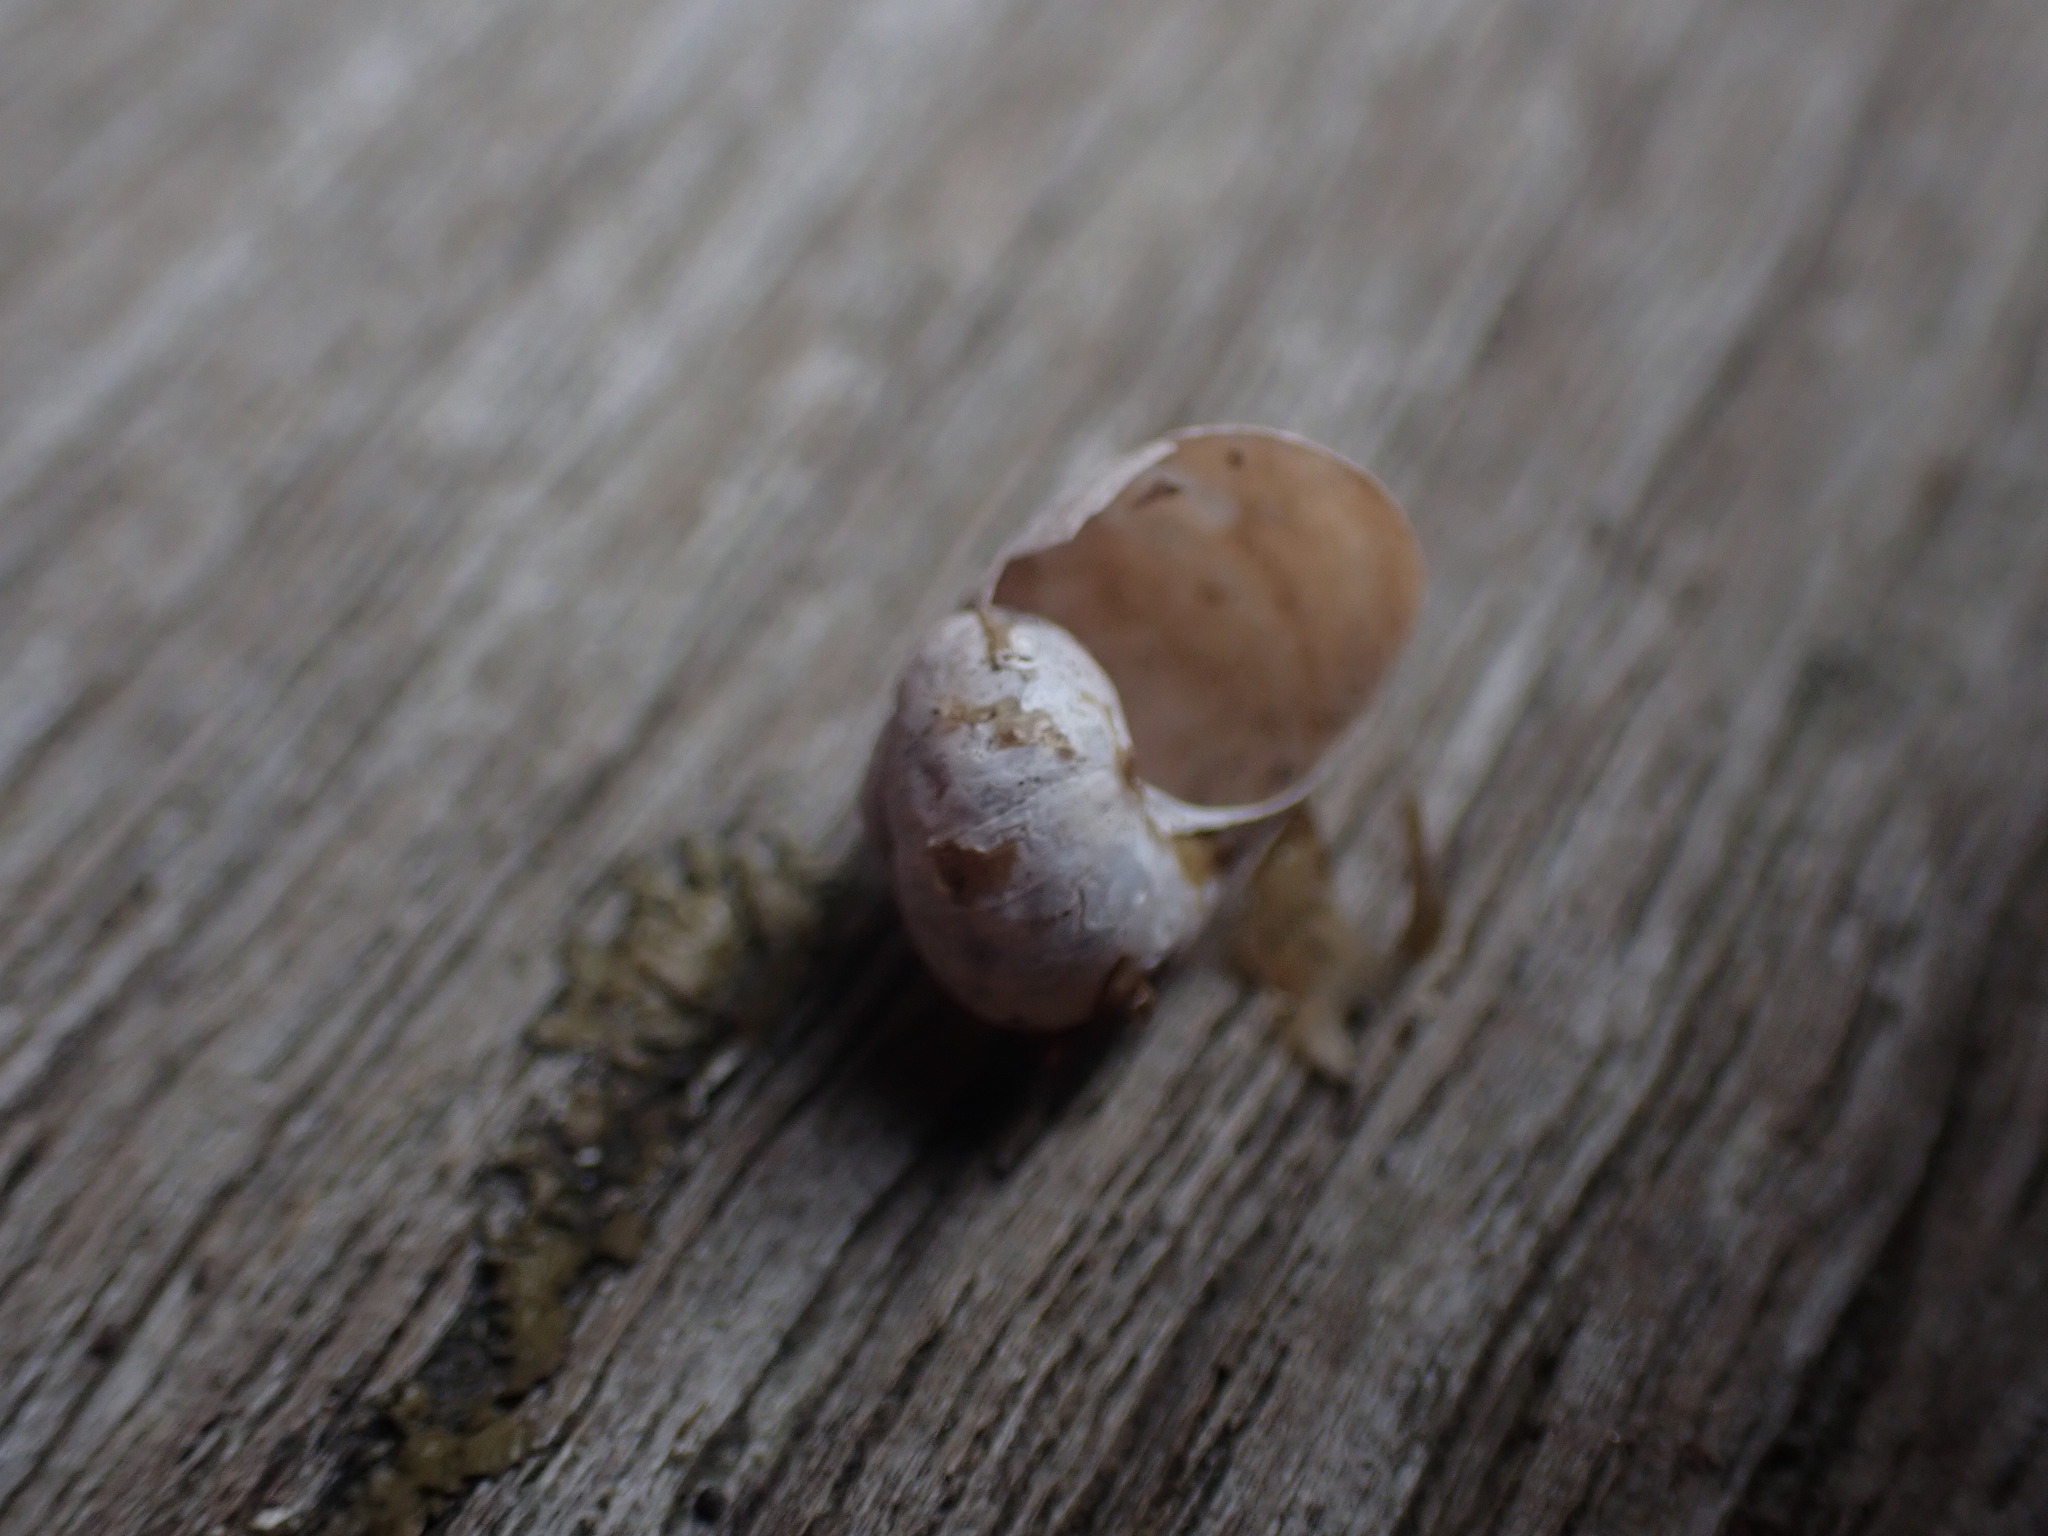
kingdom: Animalia
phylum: Mollusca
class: Gastropoda
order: Stylommatophora
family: Helicidae
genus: Cornu
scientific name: Cornu aspersum
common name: Brown garden snail
